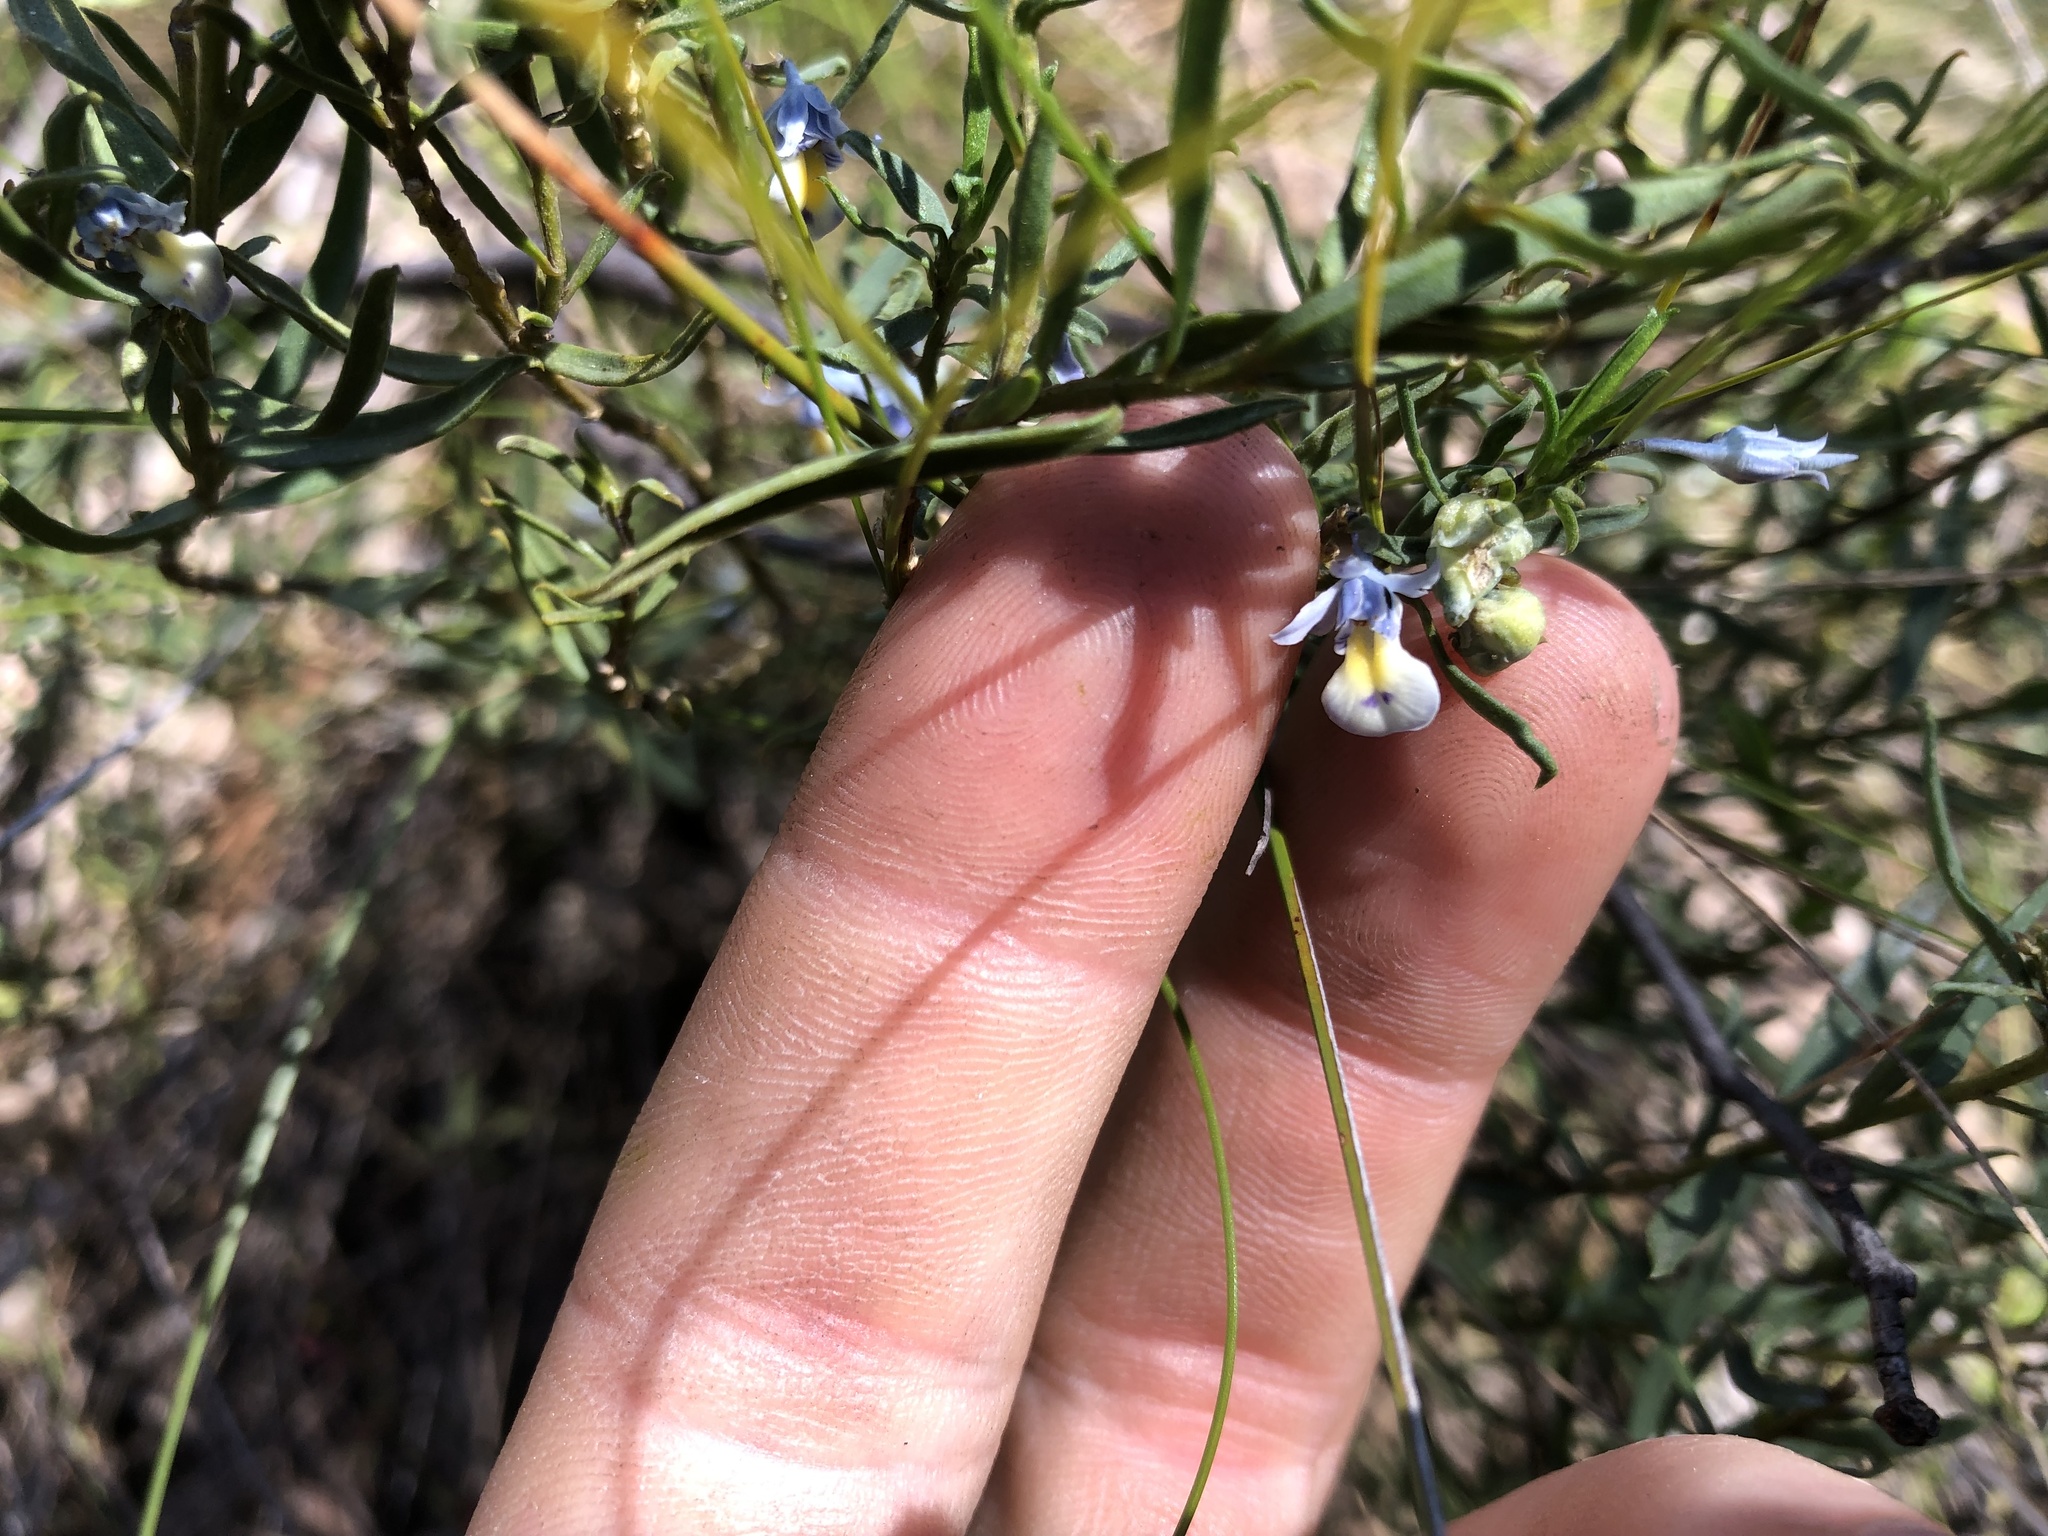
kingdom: Plantae
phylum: Tracheophyta
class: Magnoliopsida
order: Malpighiales
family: Violaceae
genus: Pigea
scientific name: Pigea floribunda
